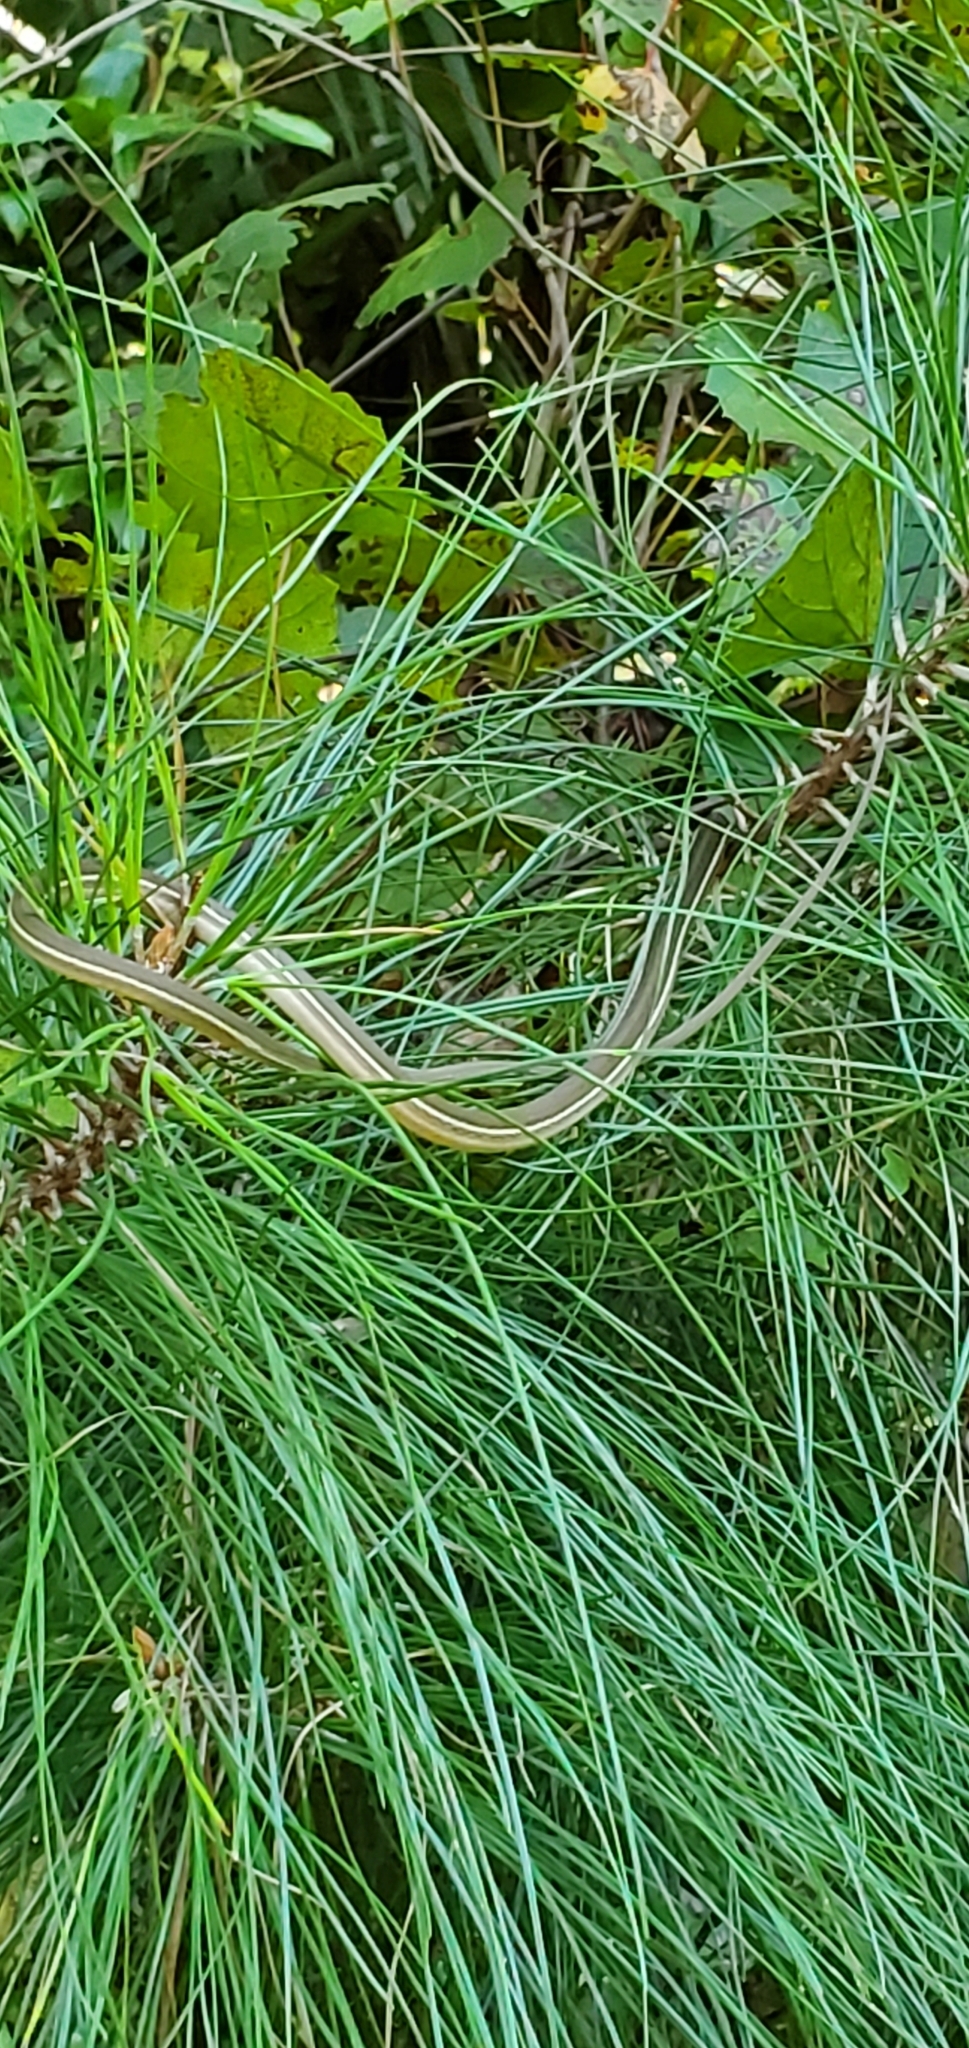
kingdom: Animalia
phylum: Chordata
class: Squamata
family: Colubridae
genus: Thamnophis
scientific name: Thamnophis saurita
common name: Eastern ribbonsnake
